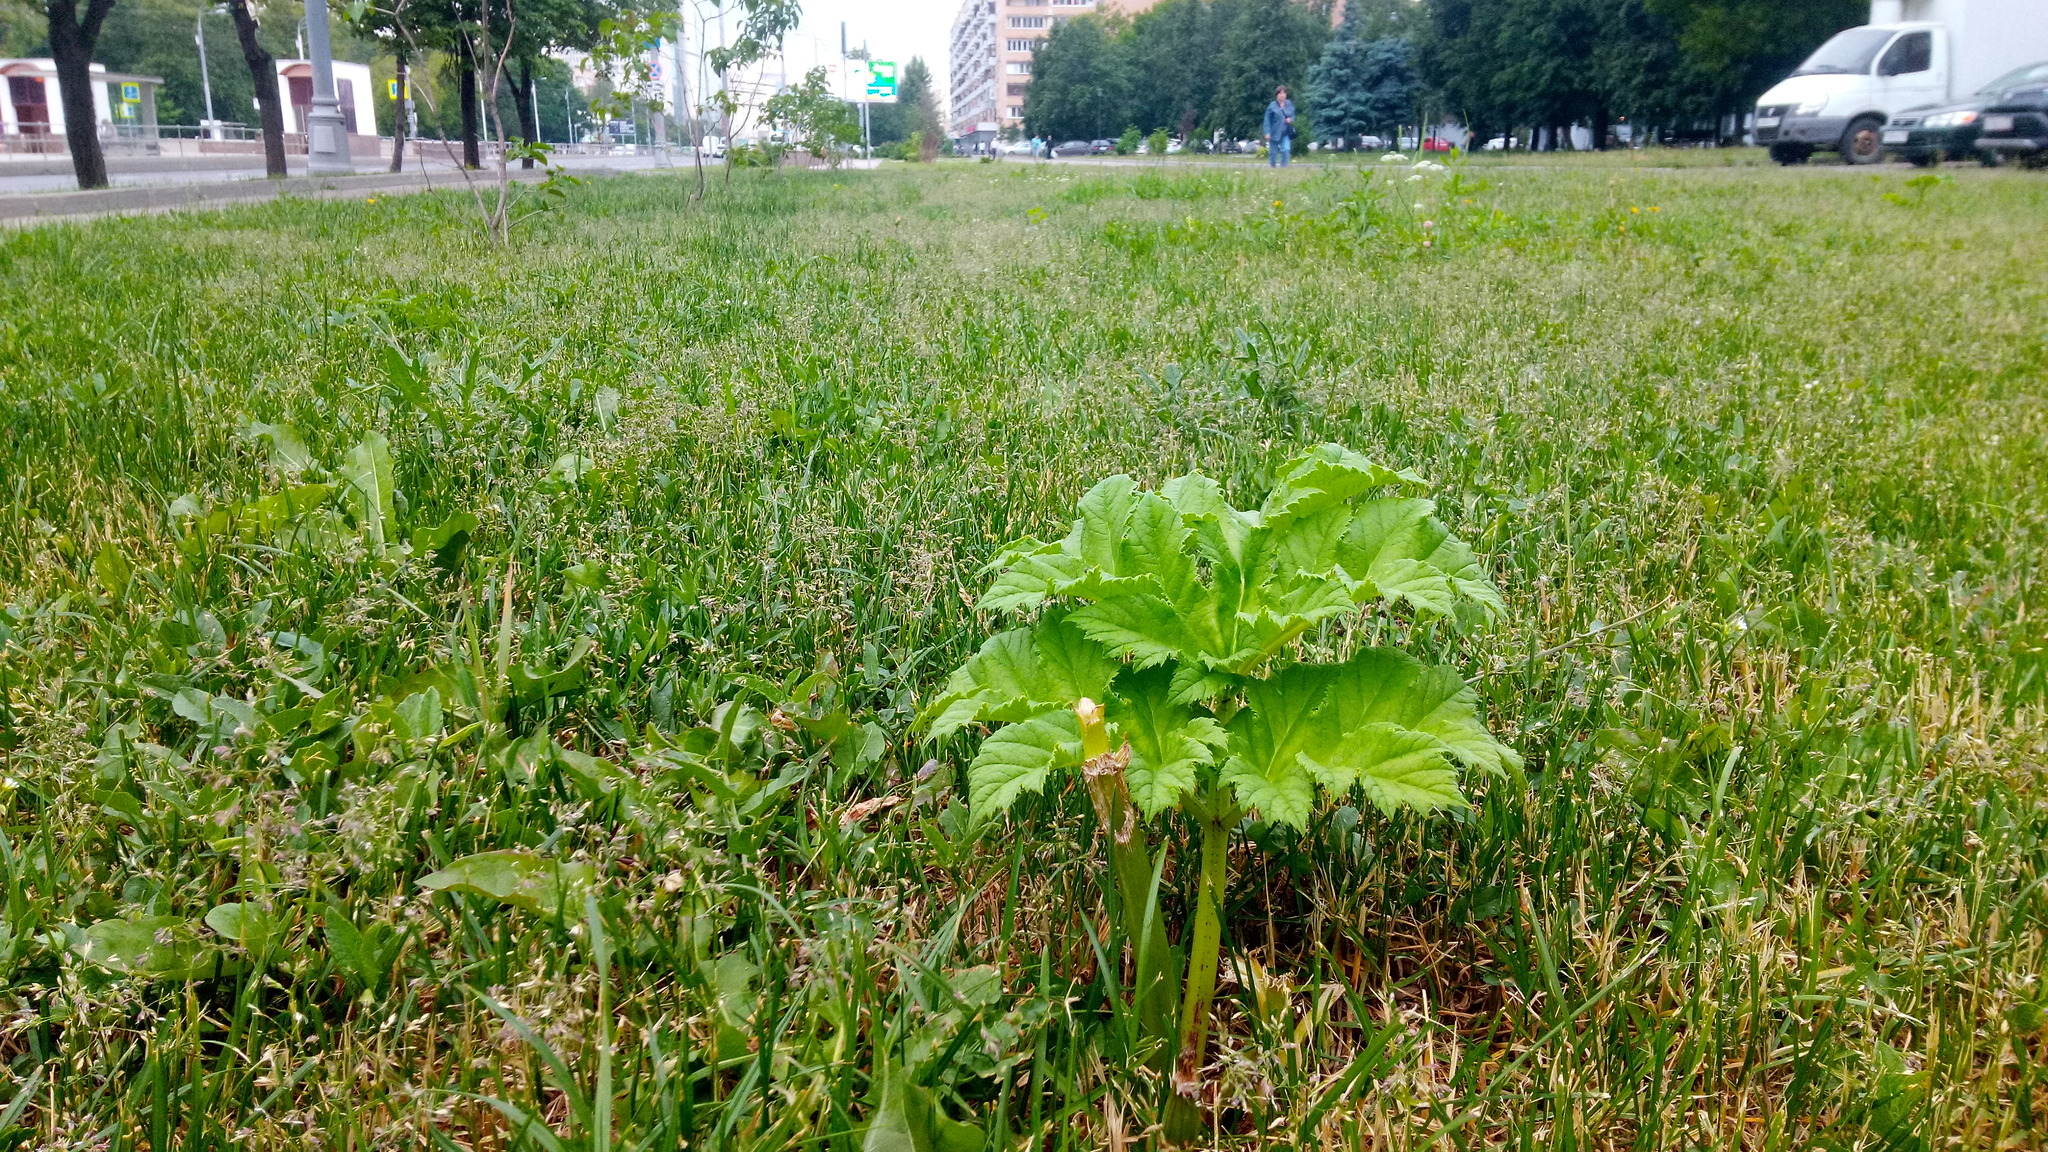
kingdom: Plantae
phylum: Tracheophyta
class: Magnoliopsida
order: Apiales
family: Apiaceae
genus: Heracleum
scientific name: Heracleum sosnowskyi
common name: Sosnowsky's hogweed
